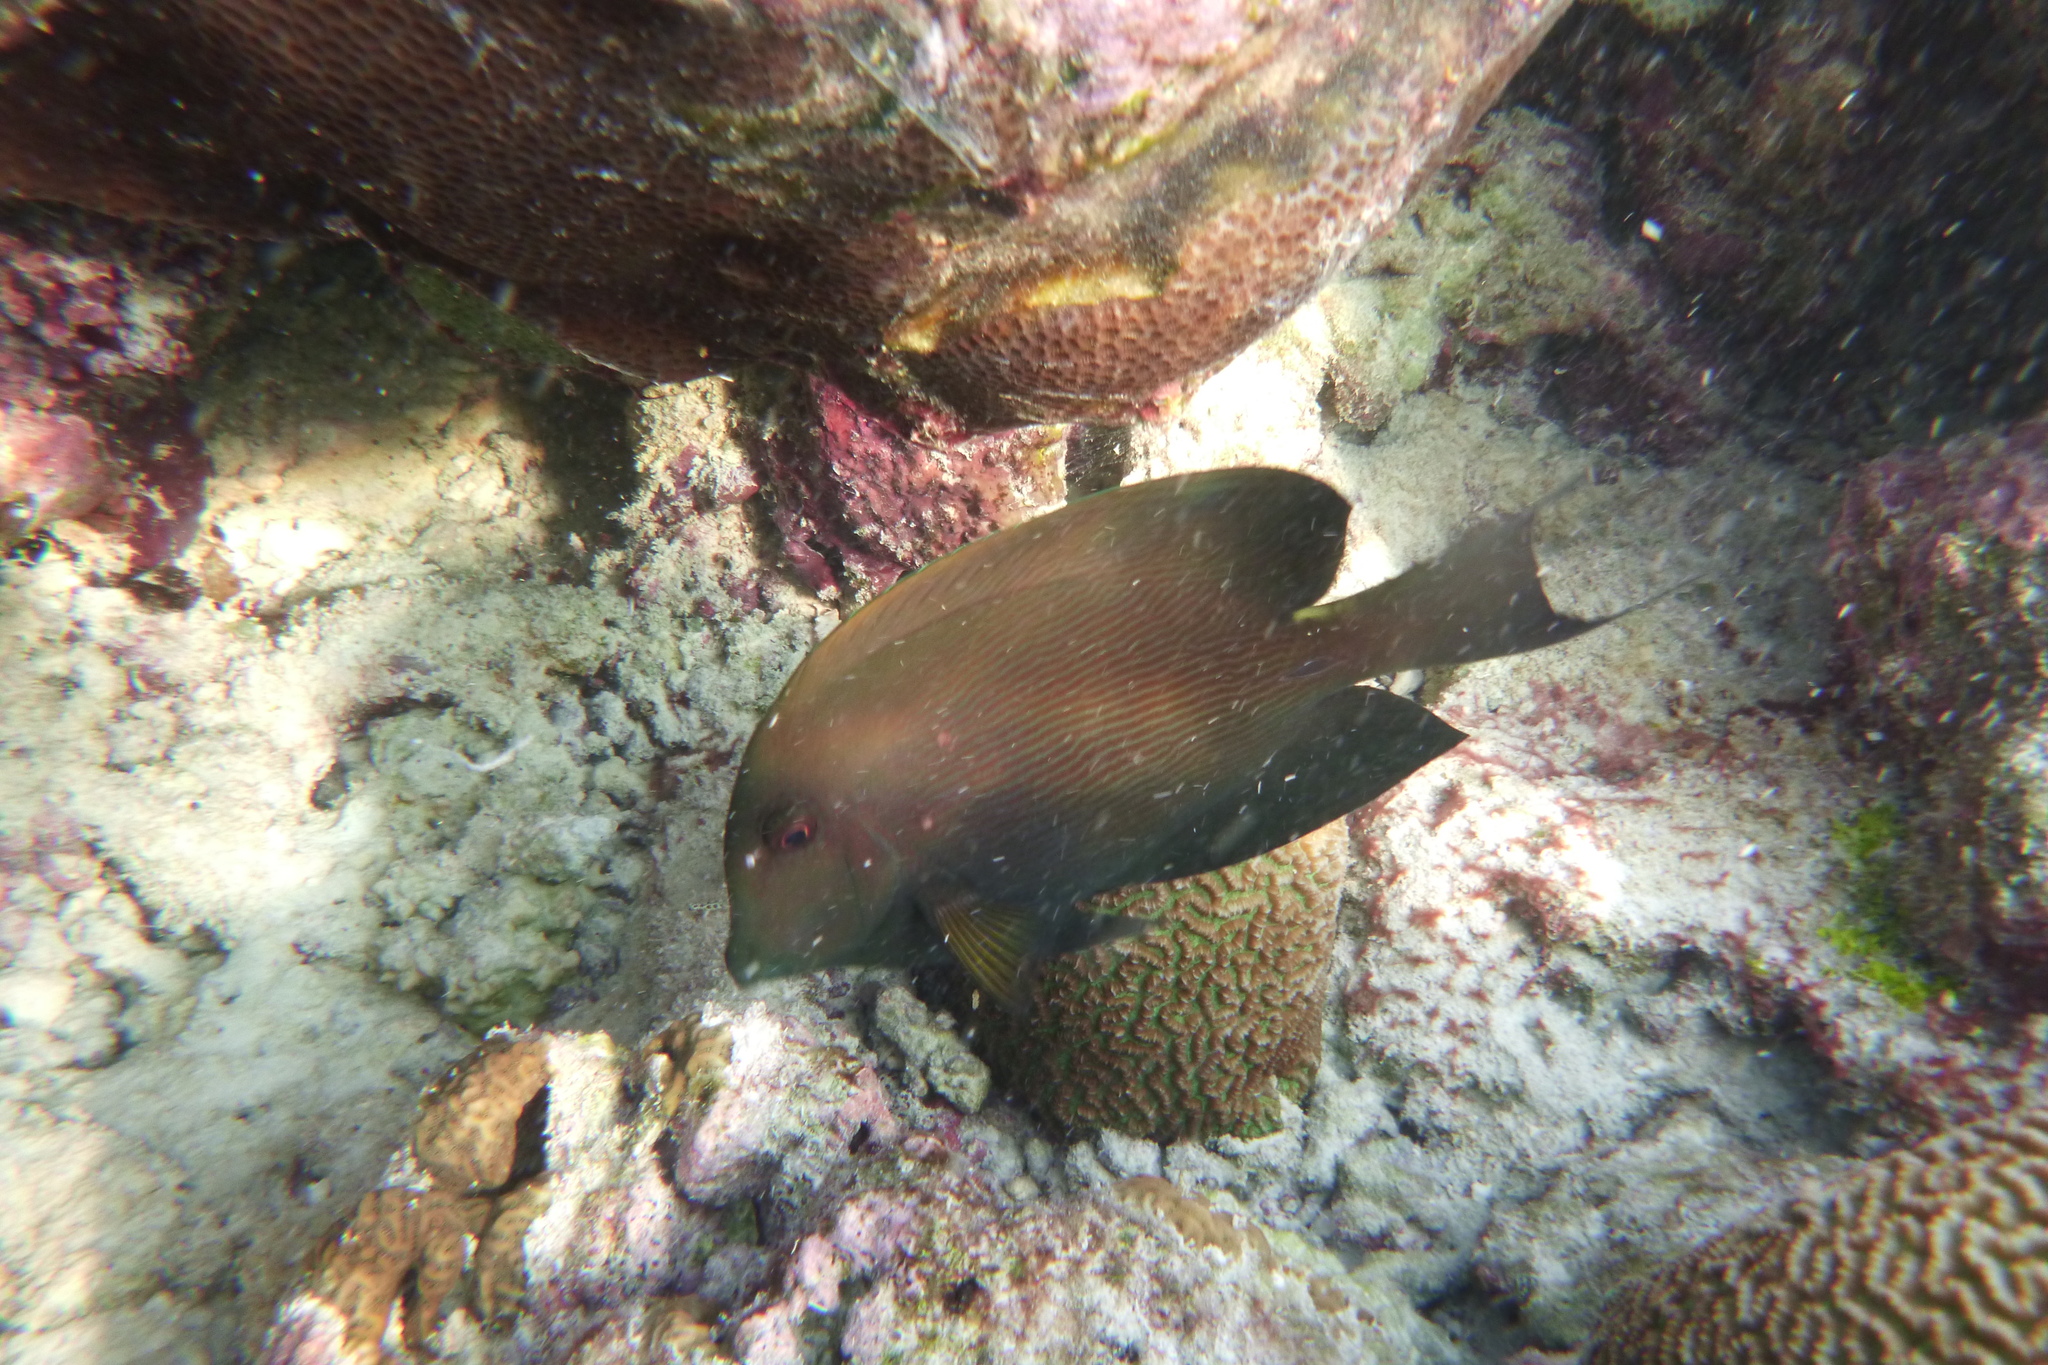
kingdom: Animalia
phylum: Chordata
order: Perciformes
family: Acanthuridae
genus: Ctenochaetus
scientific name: Ctenochaetus striatus
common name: Bristle-toothed surgeonfish
